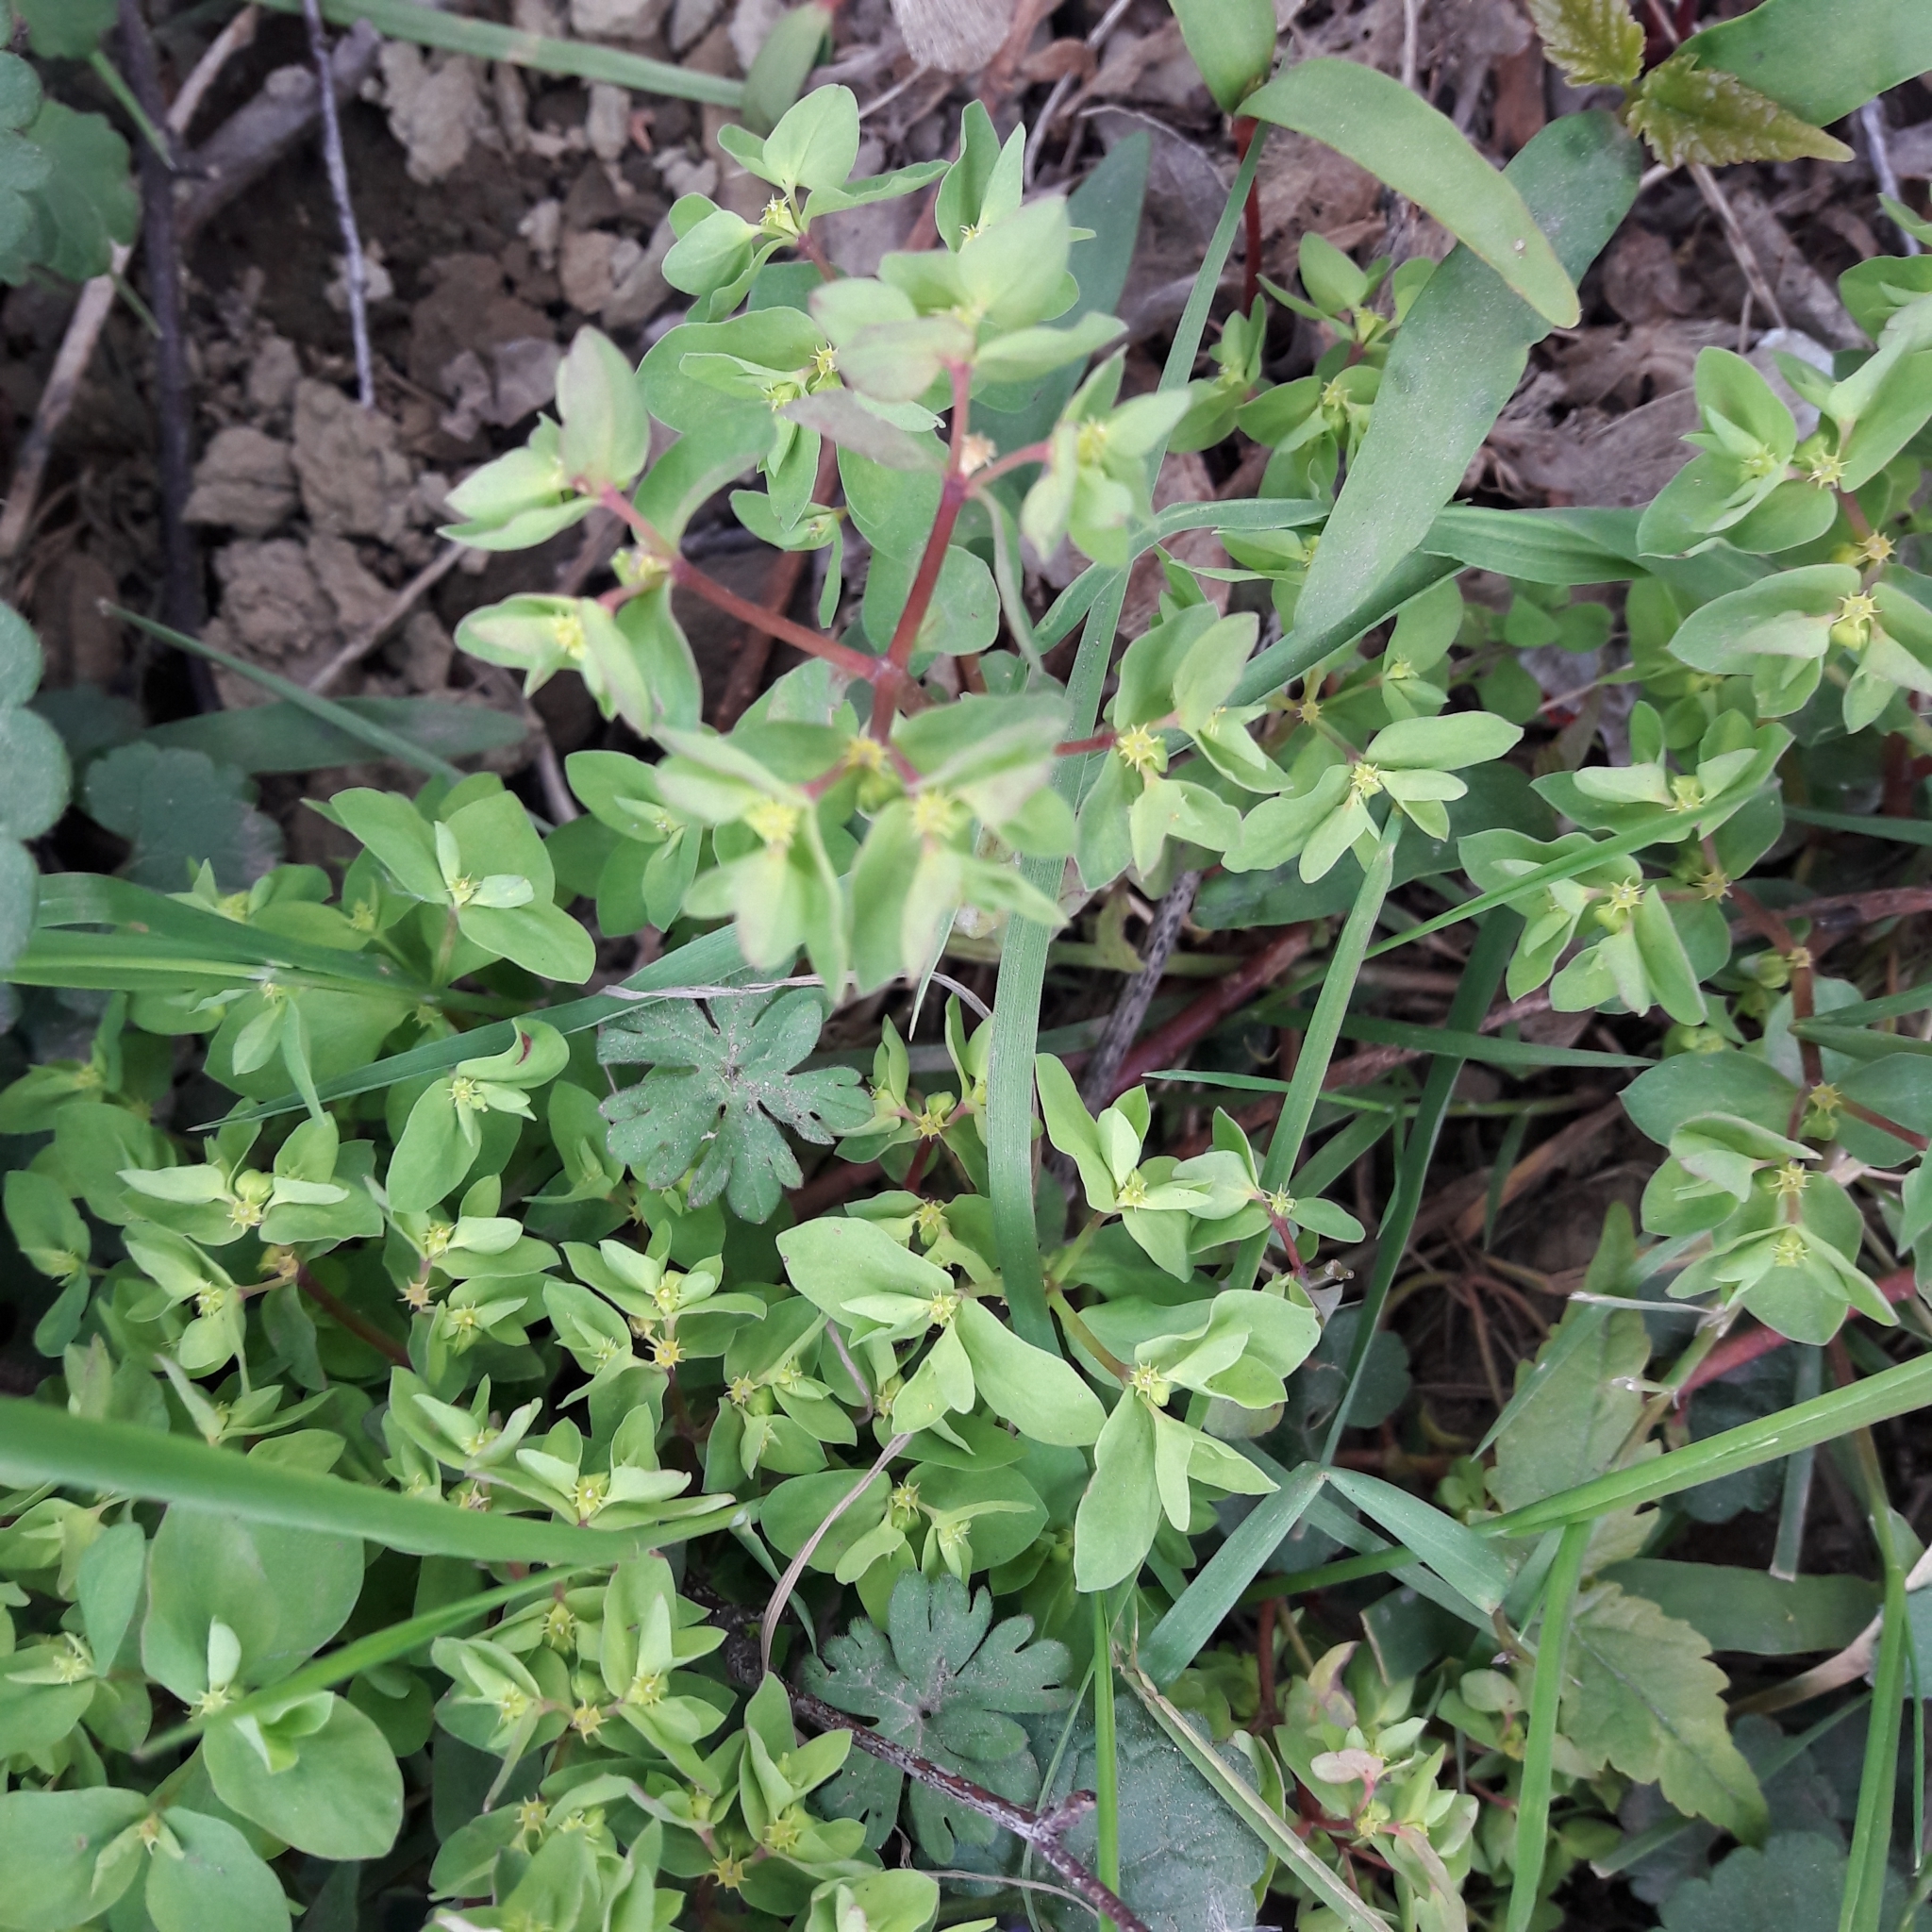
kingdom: Plantae
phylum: Tracheophyta
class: Magnoliopsida
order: Malpighiales
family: Euphorbiaceae
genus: Euphorbia
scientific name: Euphorbia peplus
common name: Petty spurge
